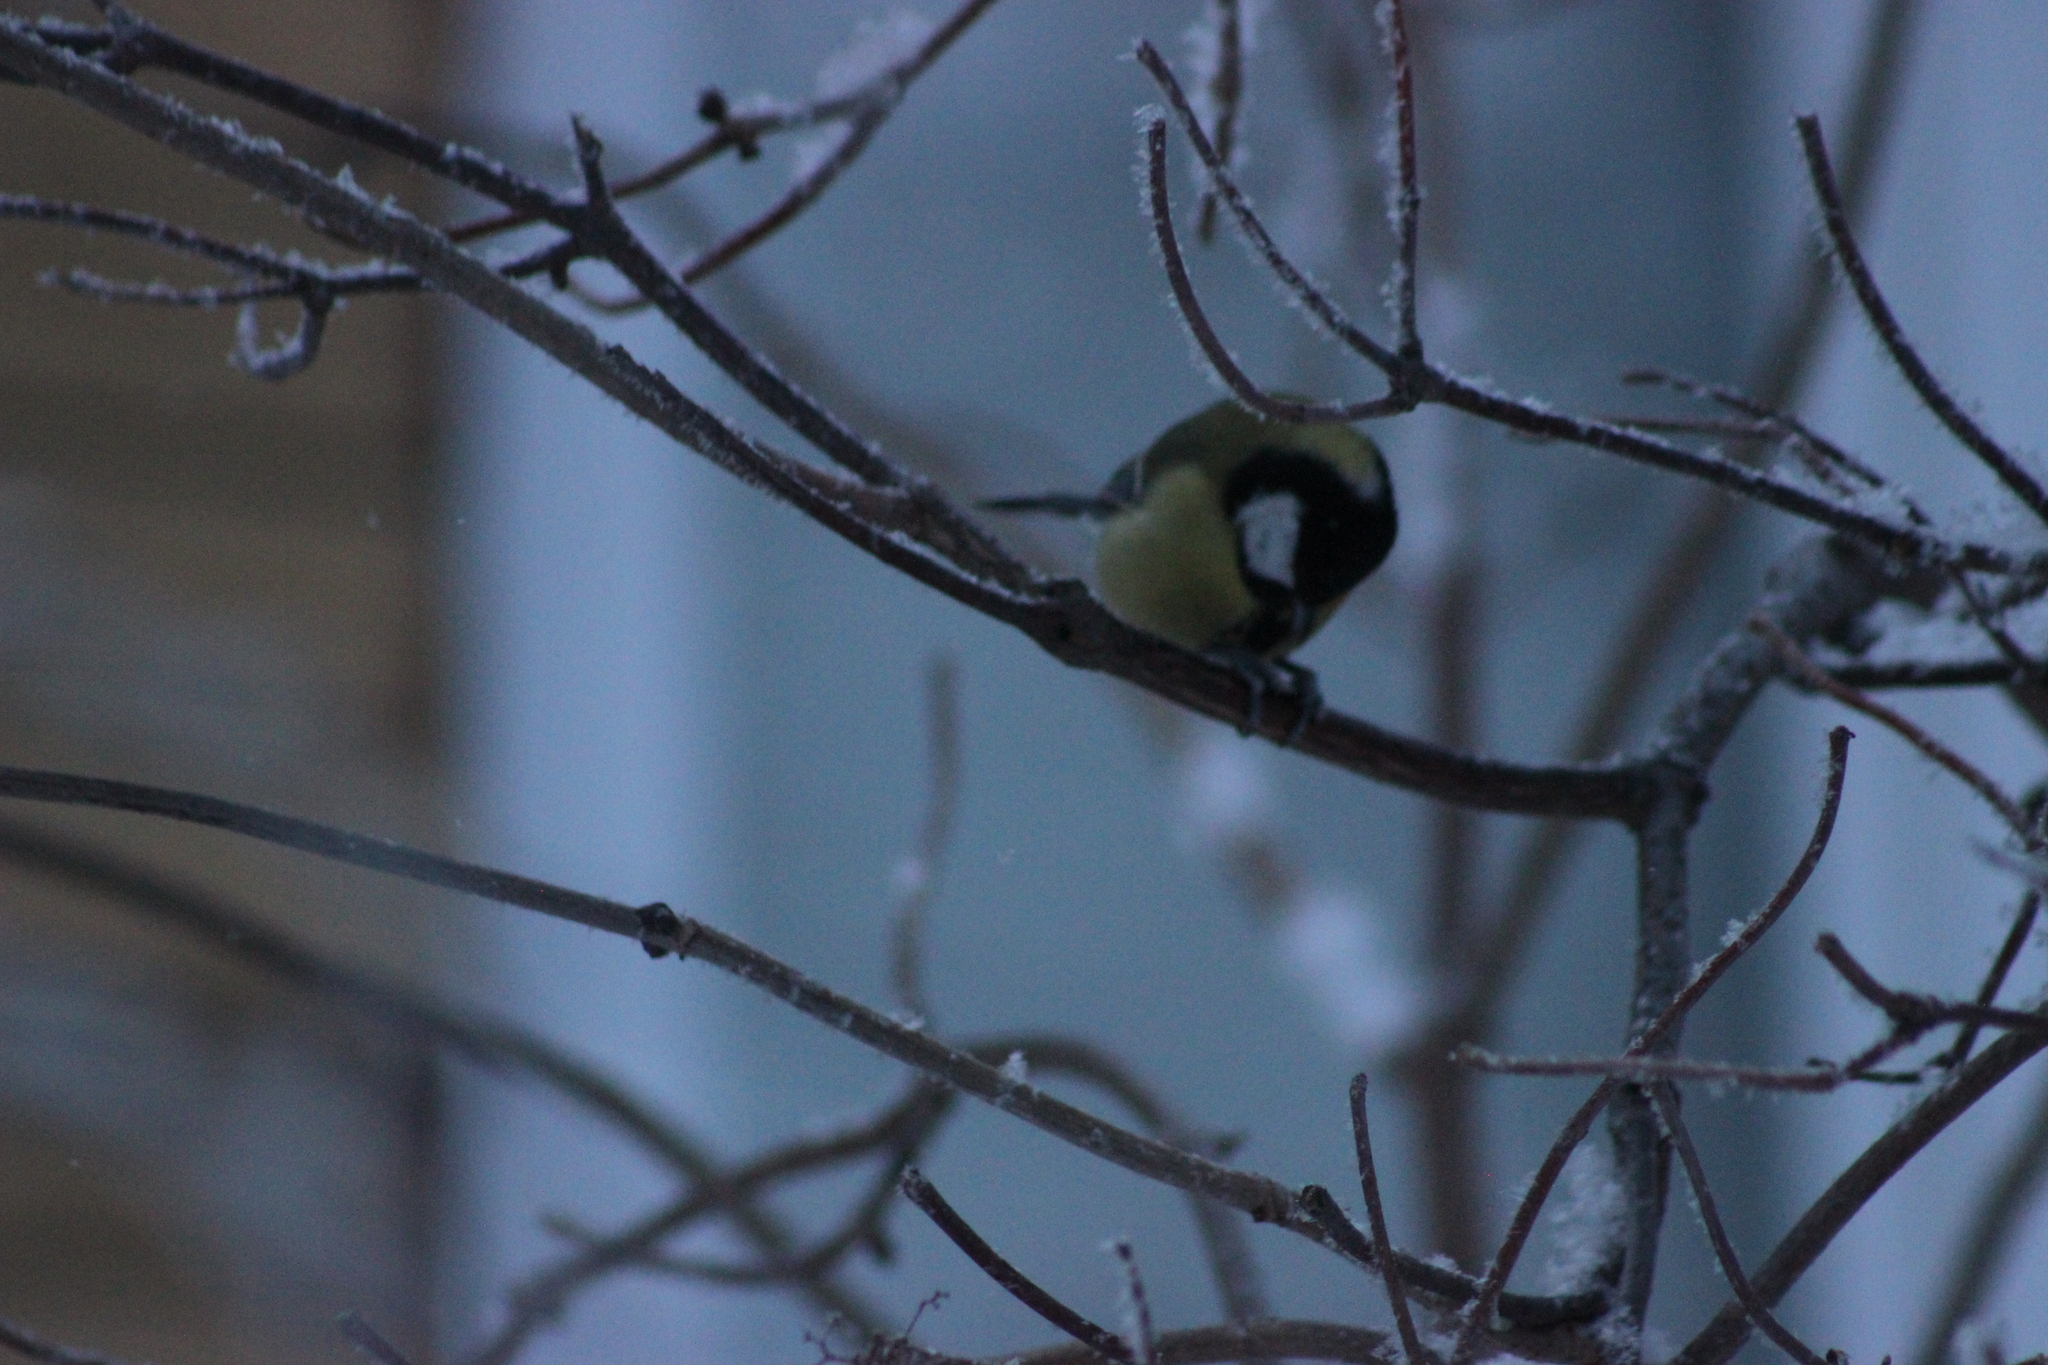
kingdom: Animalia
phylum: Chordata
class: Aves
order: Passeriformes
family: Paridae
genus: Parus
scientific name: Parus major
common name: Great tit
